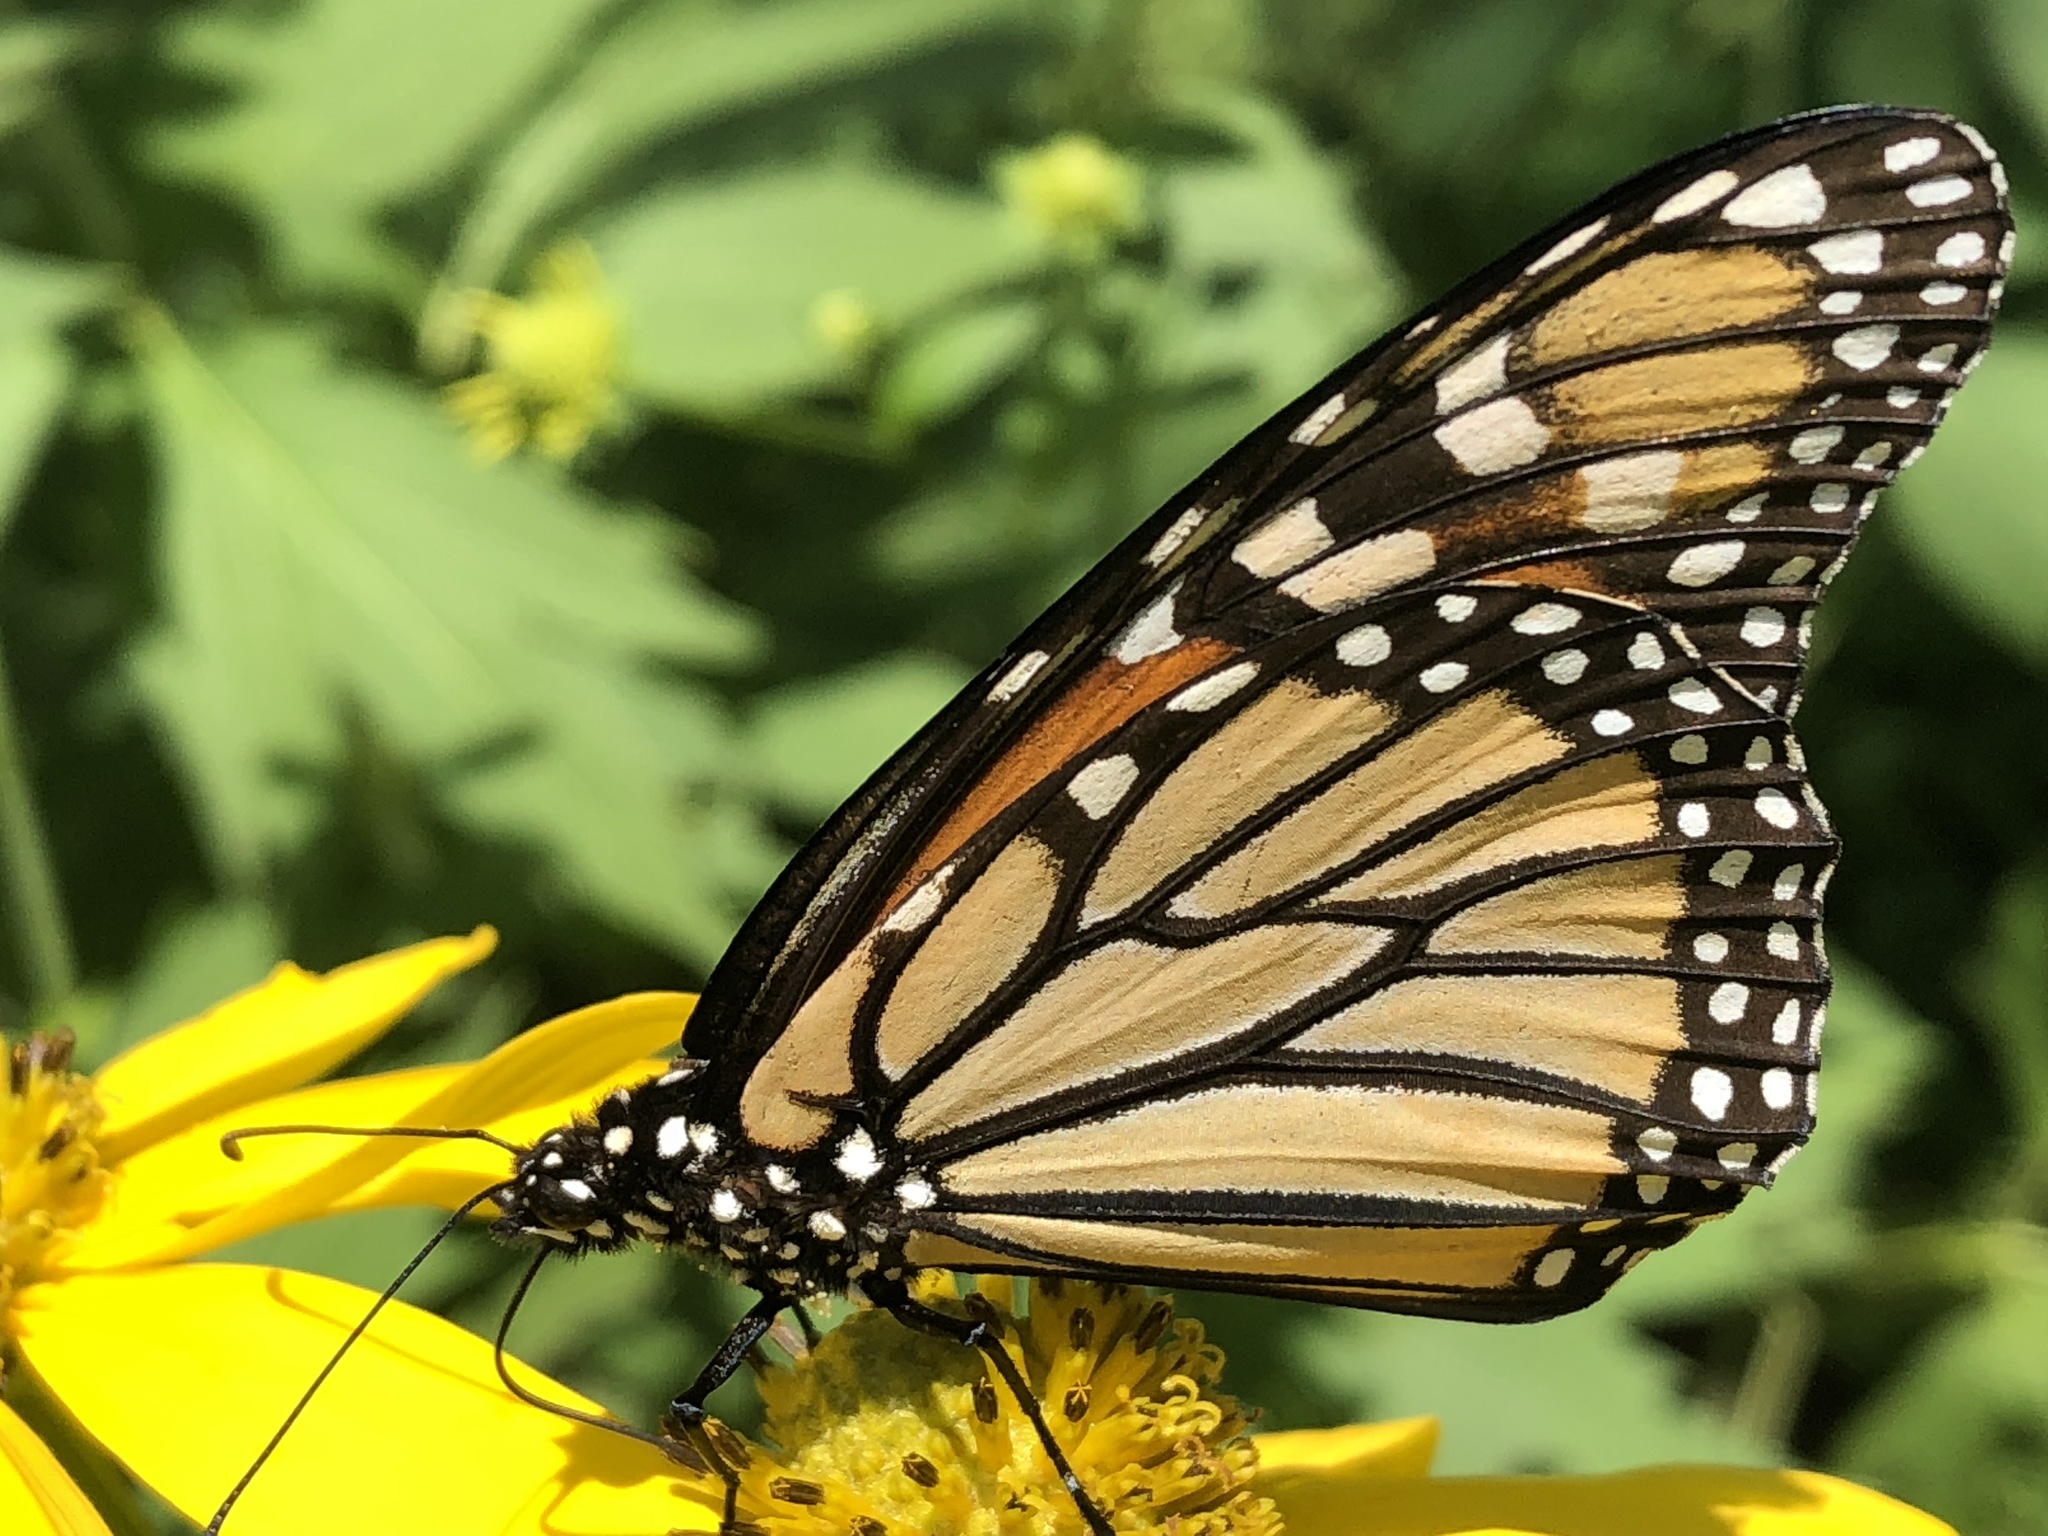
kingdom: Animalia
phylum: Arthropoda
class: Insecta
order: Lepidoptera
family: Nymphalidae
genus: Danaus
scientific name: Danaus plexippus
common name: Monarch
